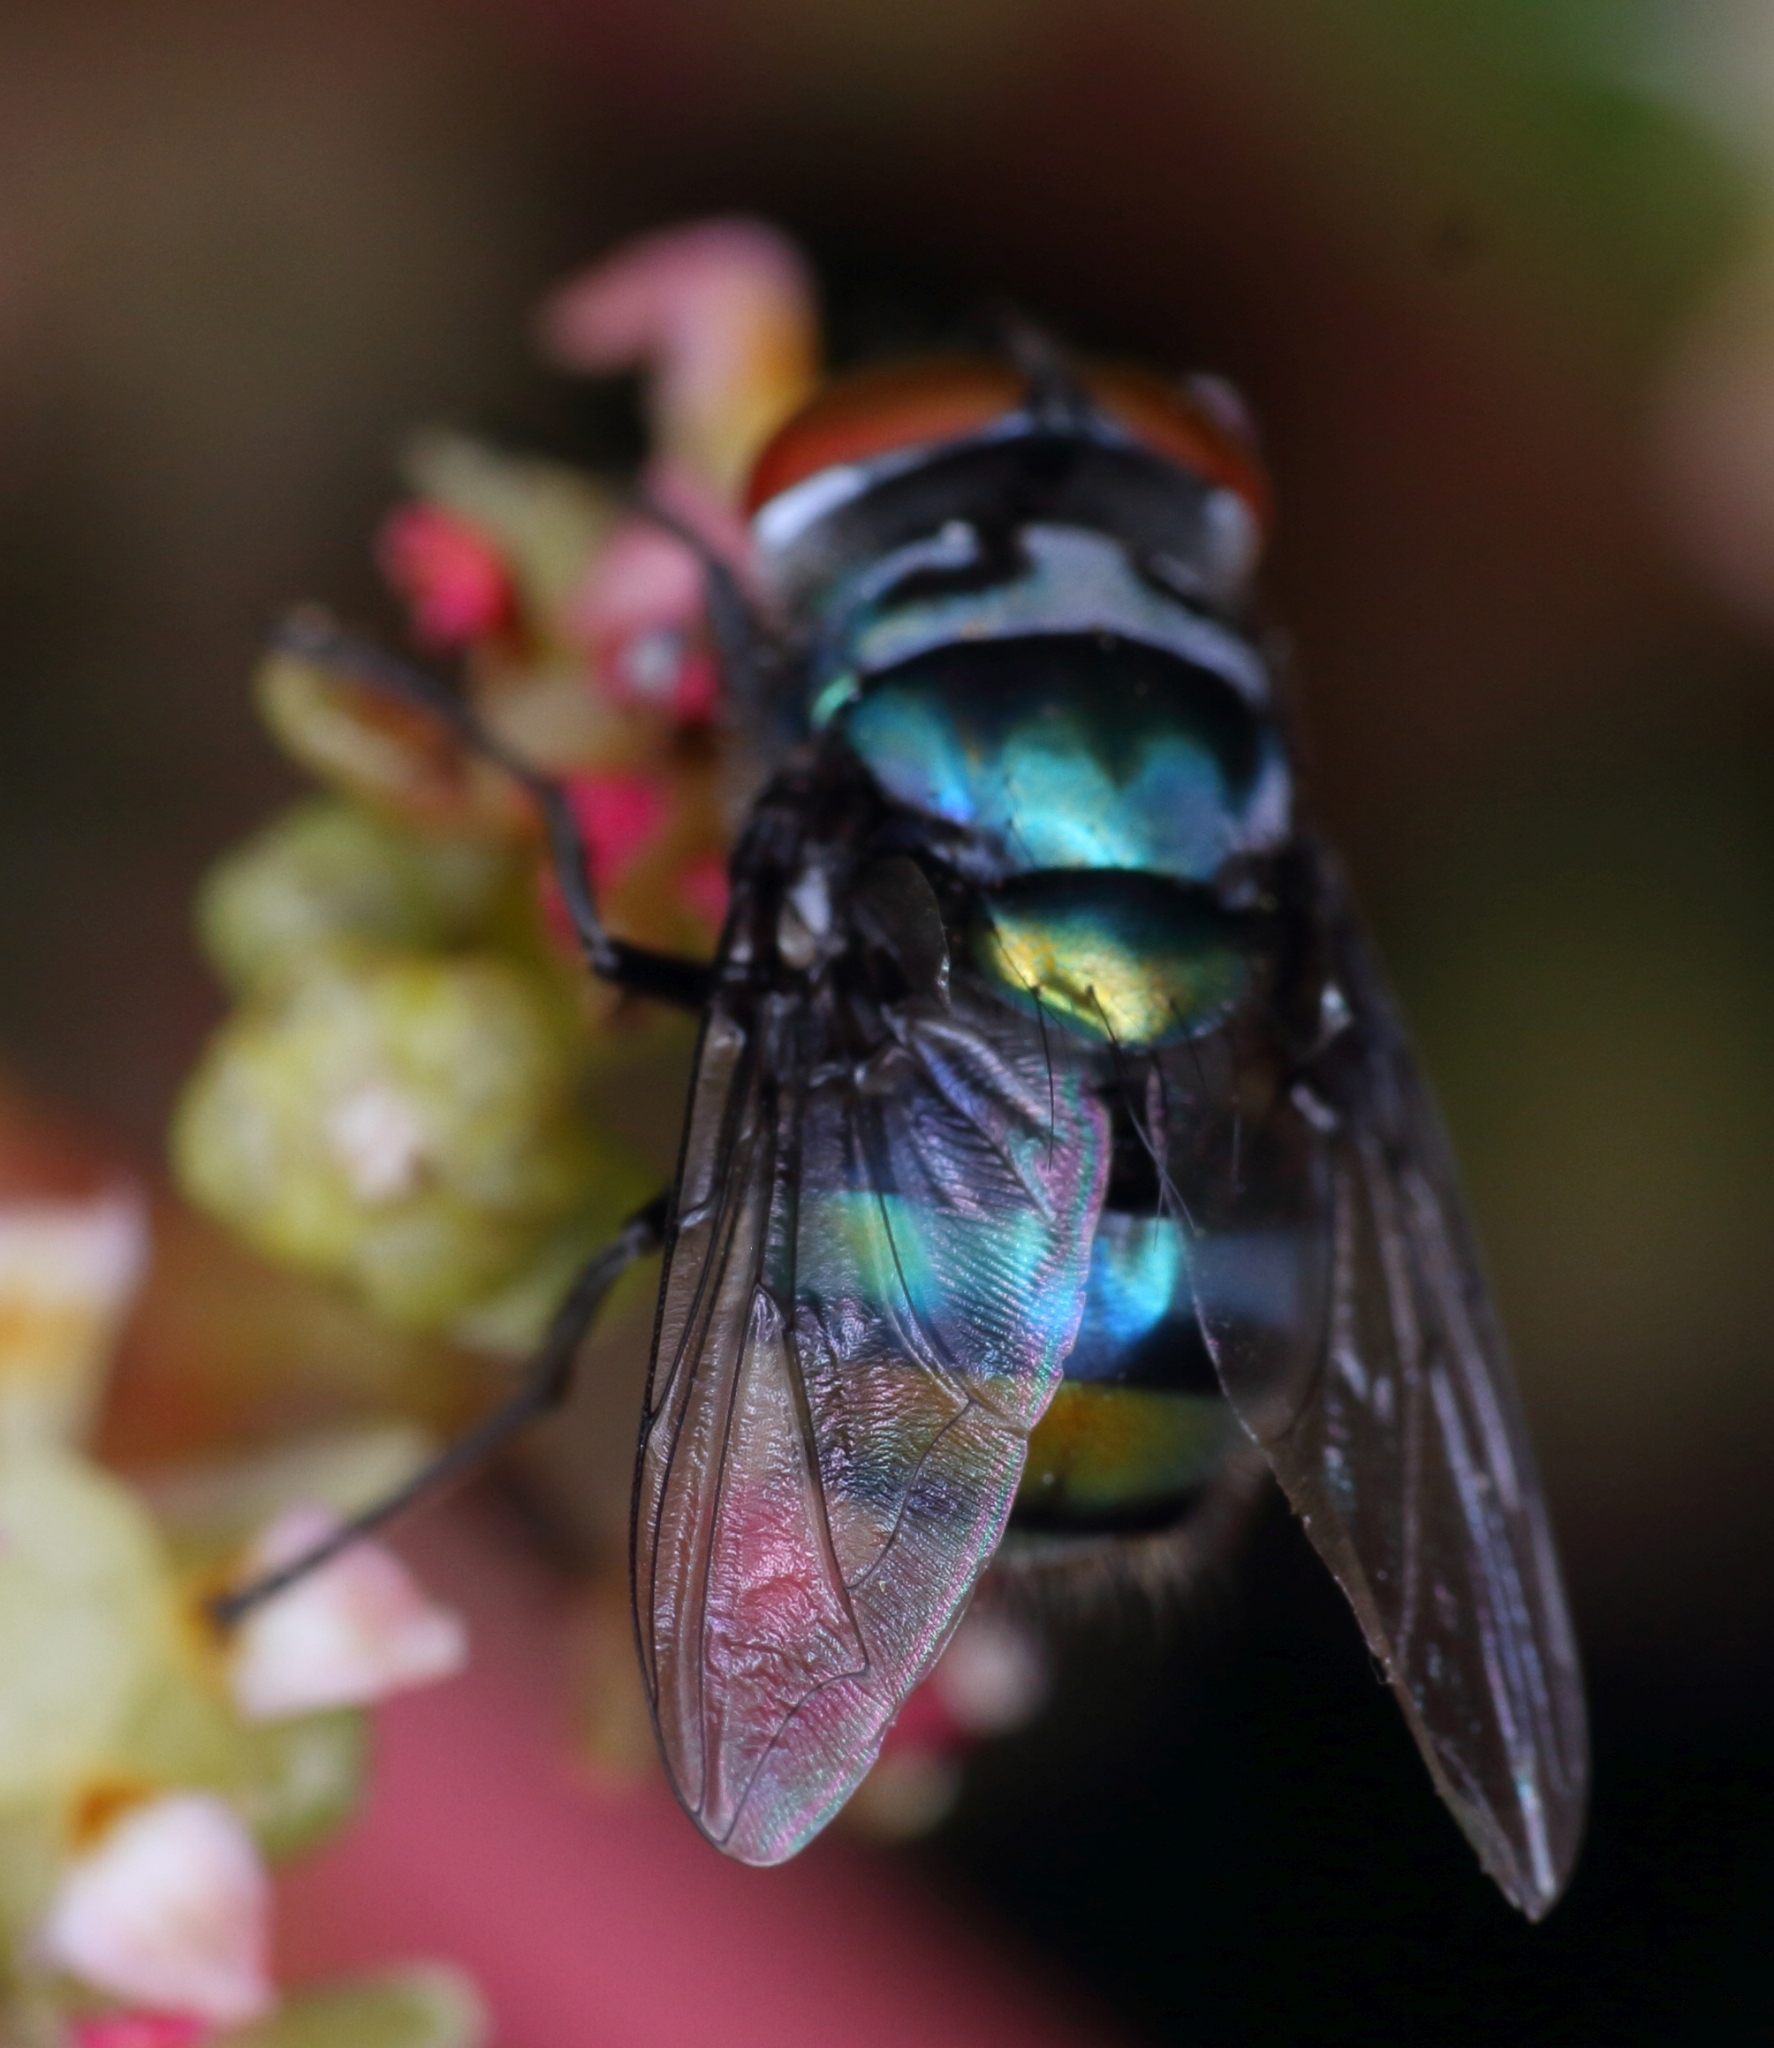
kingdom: Animalia
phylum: Arthropoda
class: Insecta
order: Diptera
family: Calliphoridae
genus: Chrysomya
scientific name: Chrysomya chloropyga
